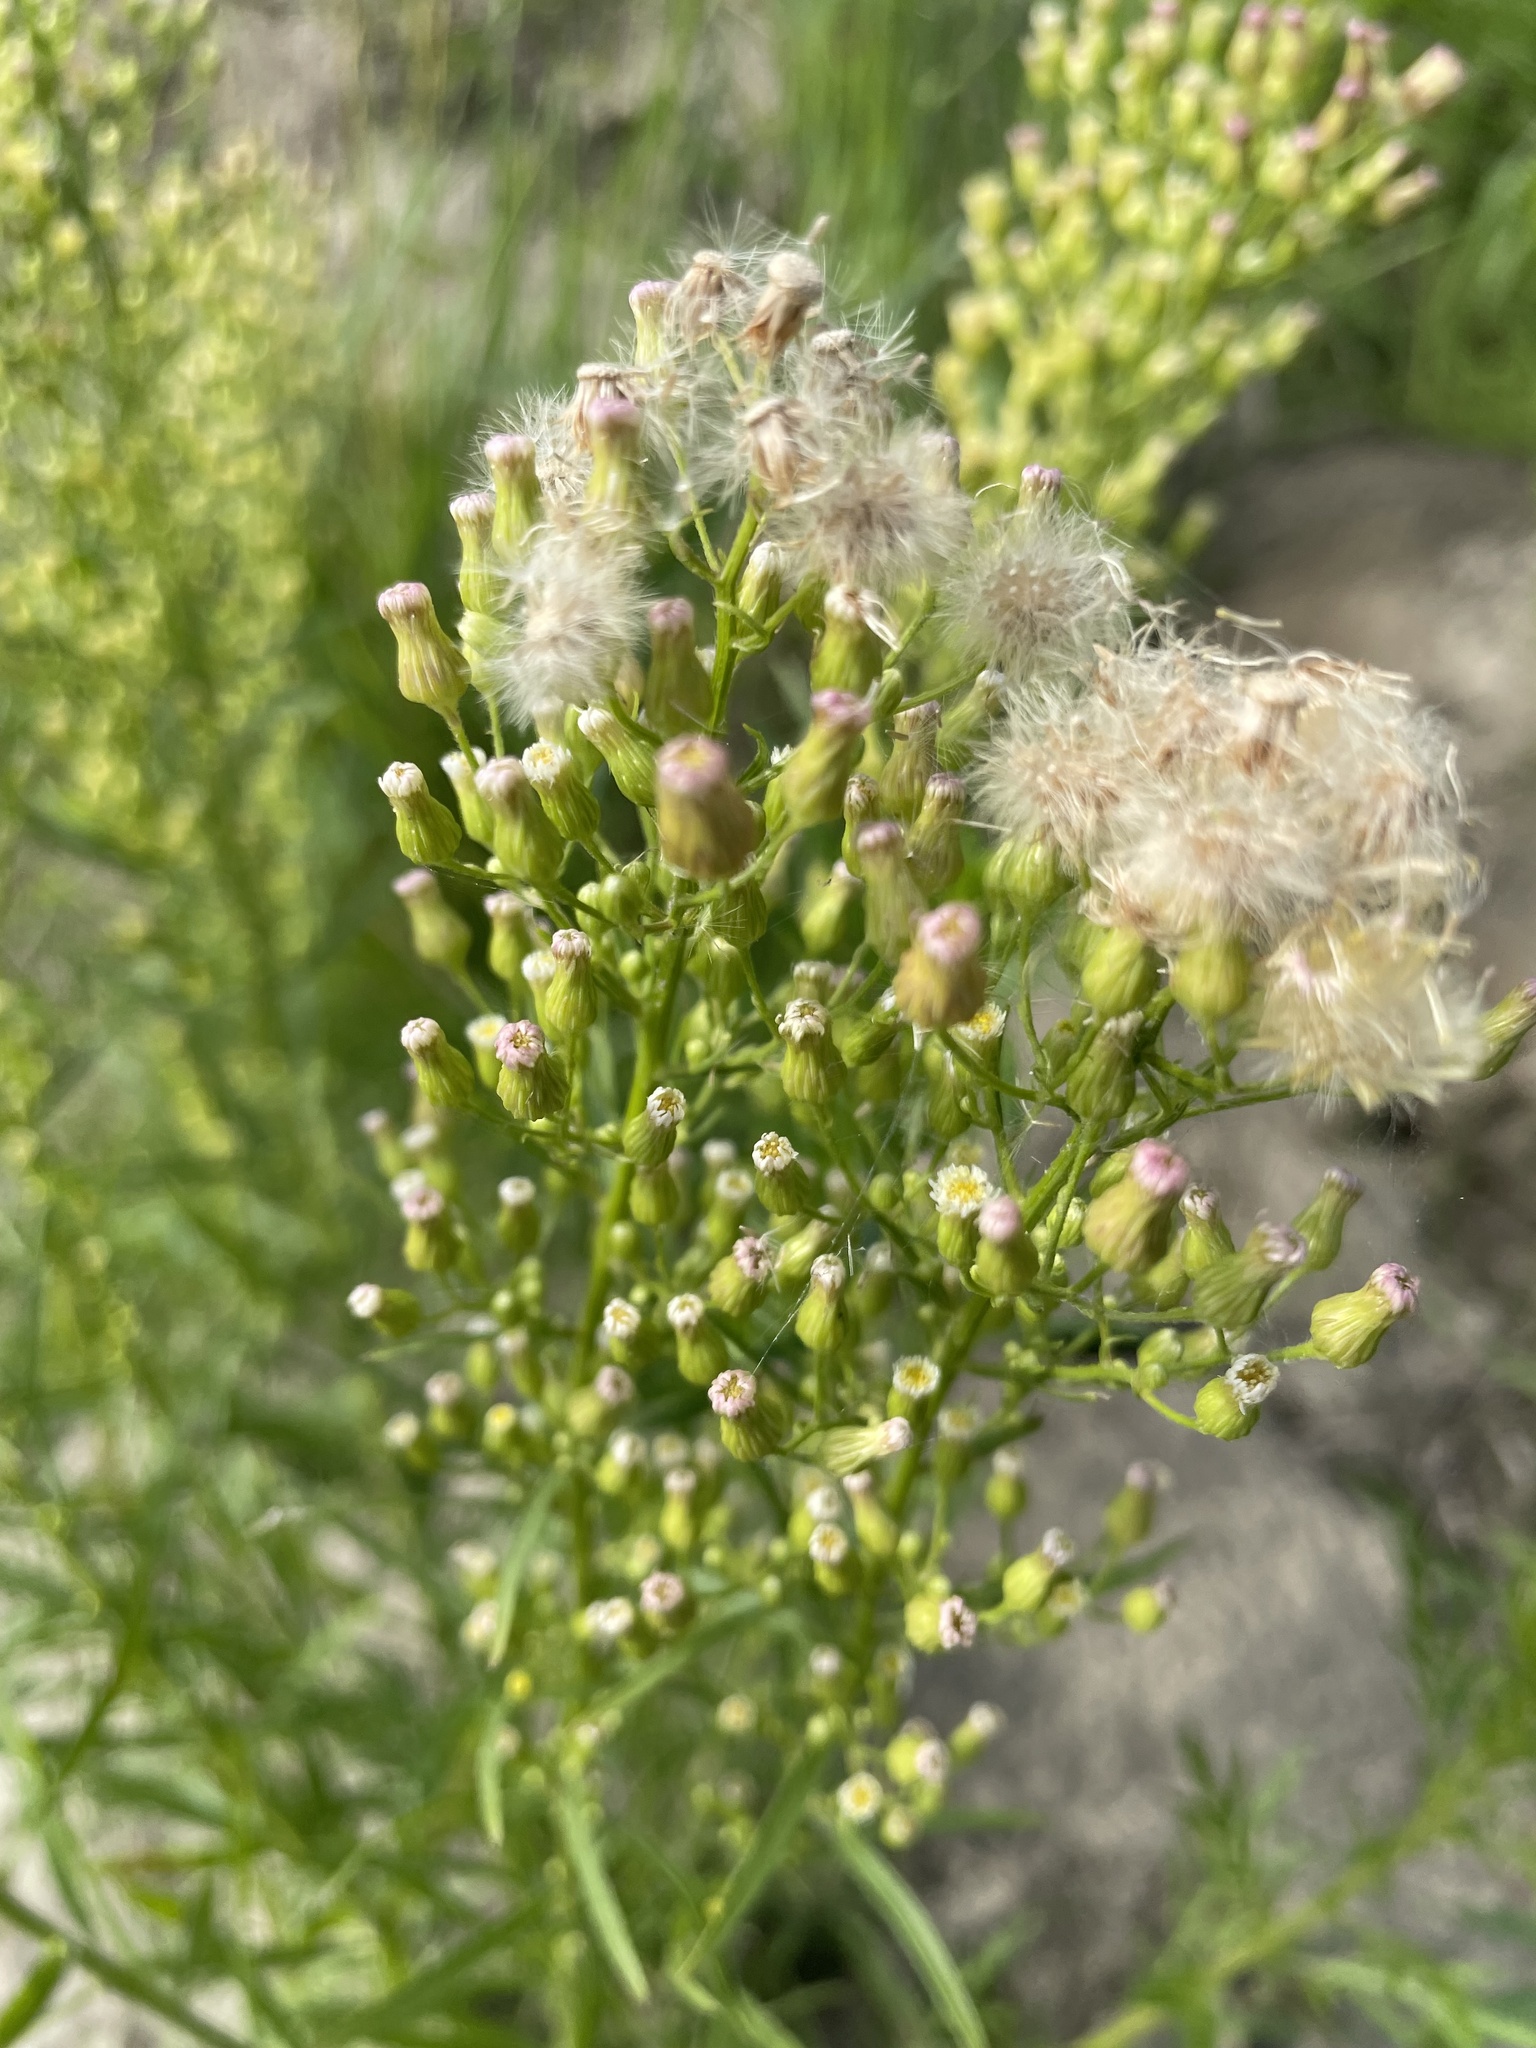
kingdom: Plantae
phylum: Tracheophyta
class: Magnoliopsida
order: Asterales
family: Asteraceae
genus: Erigeron
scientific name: Erigeron canadensis
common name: Canadian fleabane
